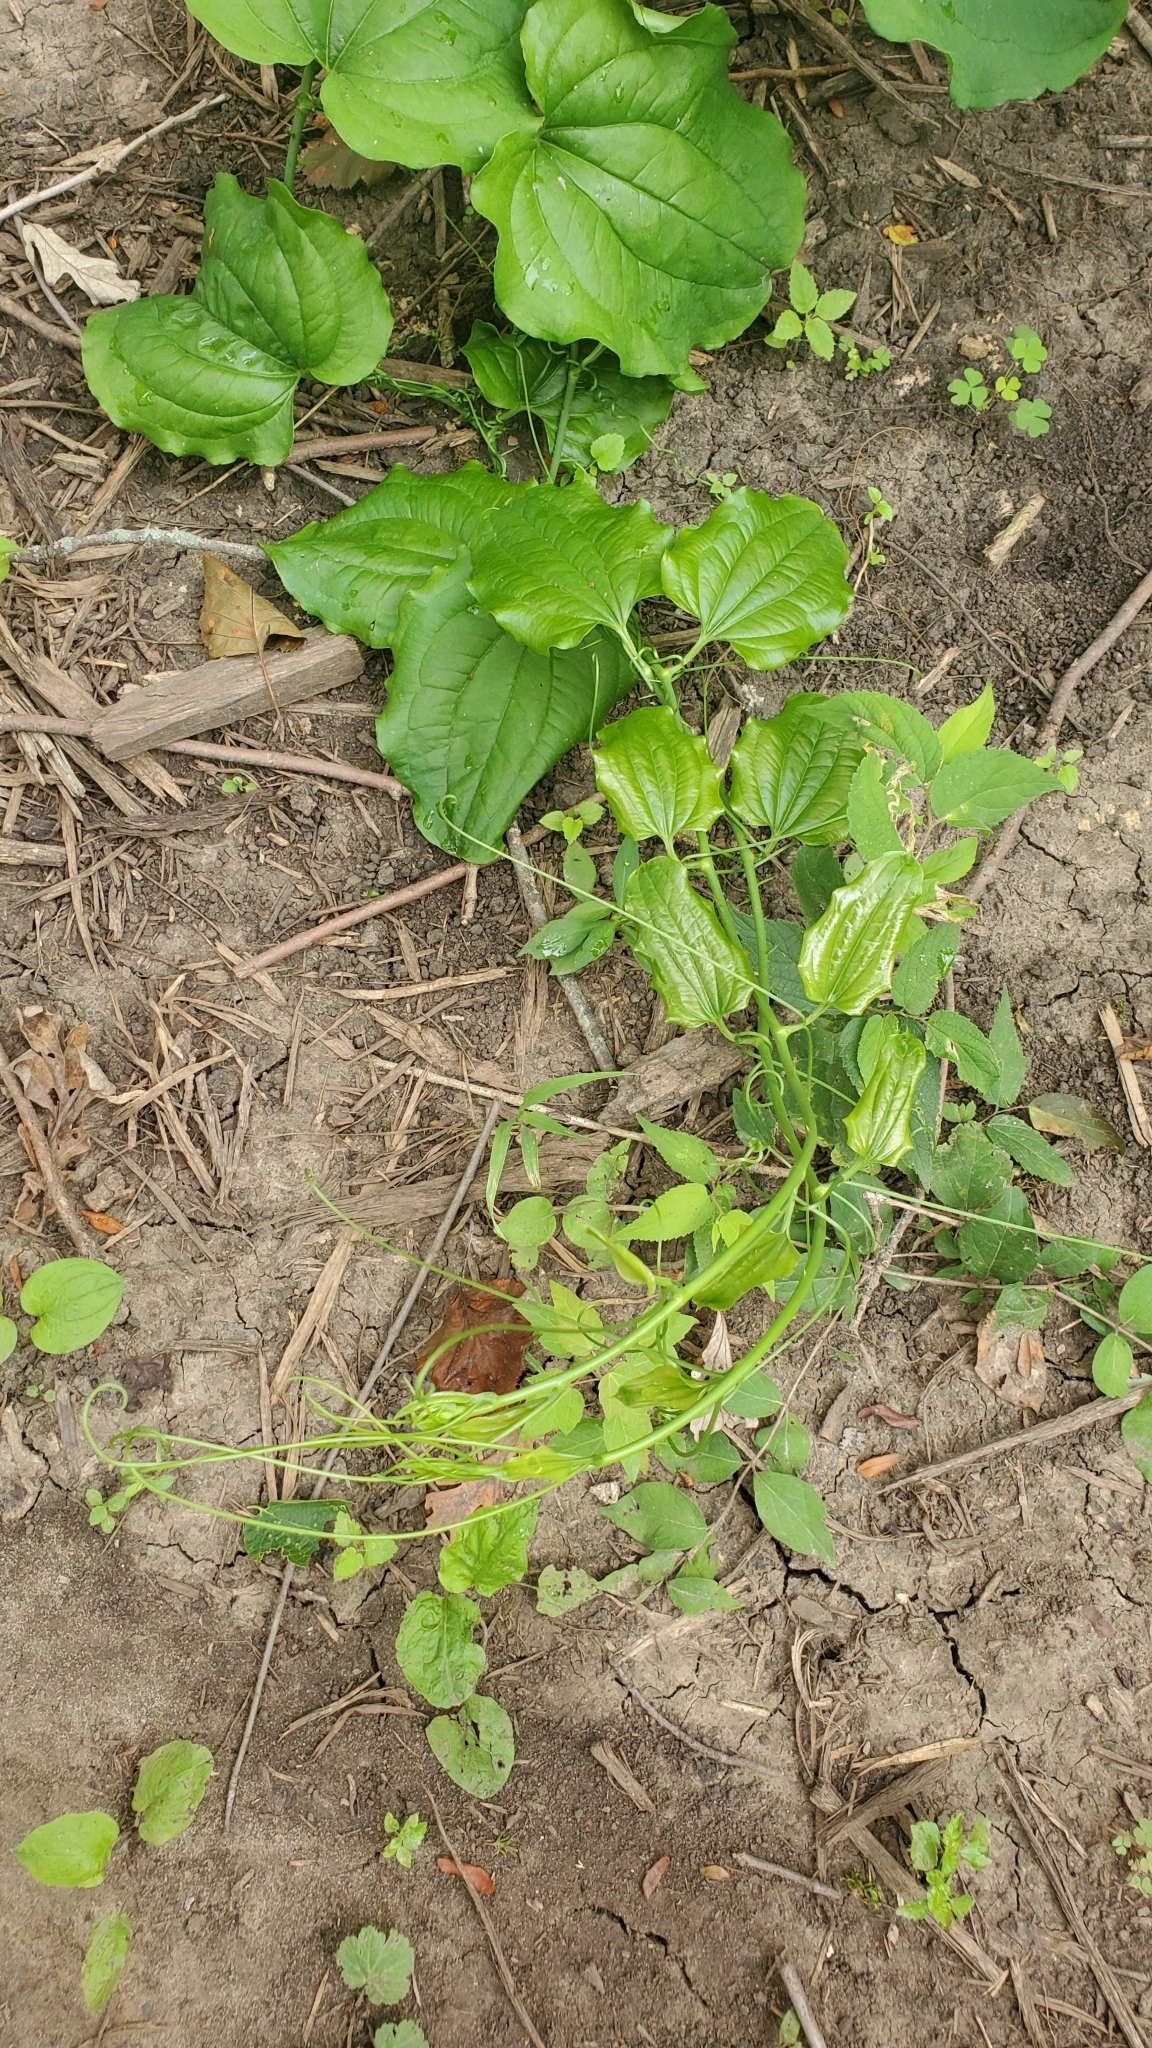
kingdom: Plantae
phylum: Tracheophyta
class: Liliopsida
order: Liliales
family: Smilacaceae
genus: Smilax
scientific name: Smilax tamnoides
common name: Hellfetter
